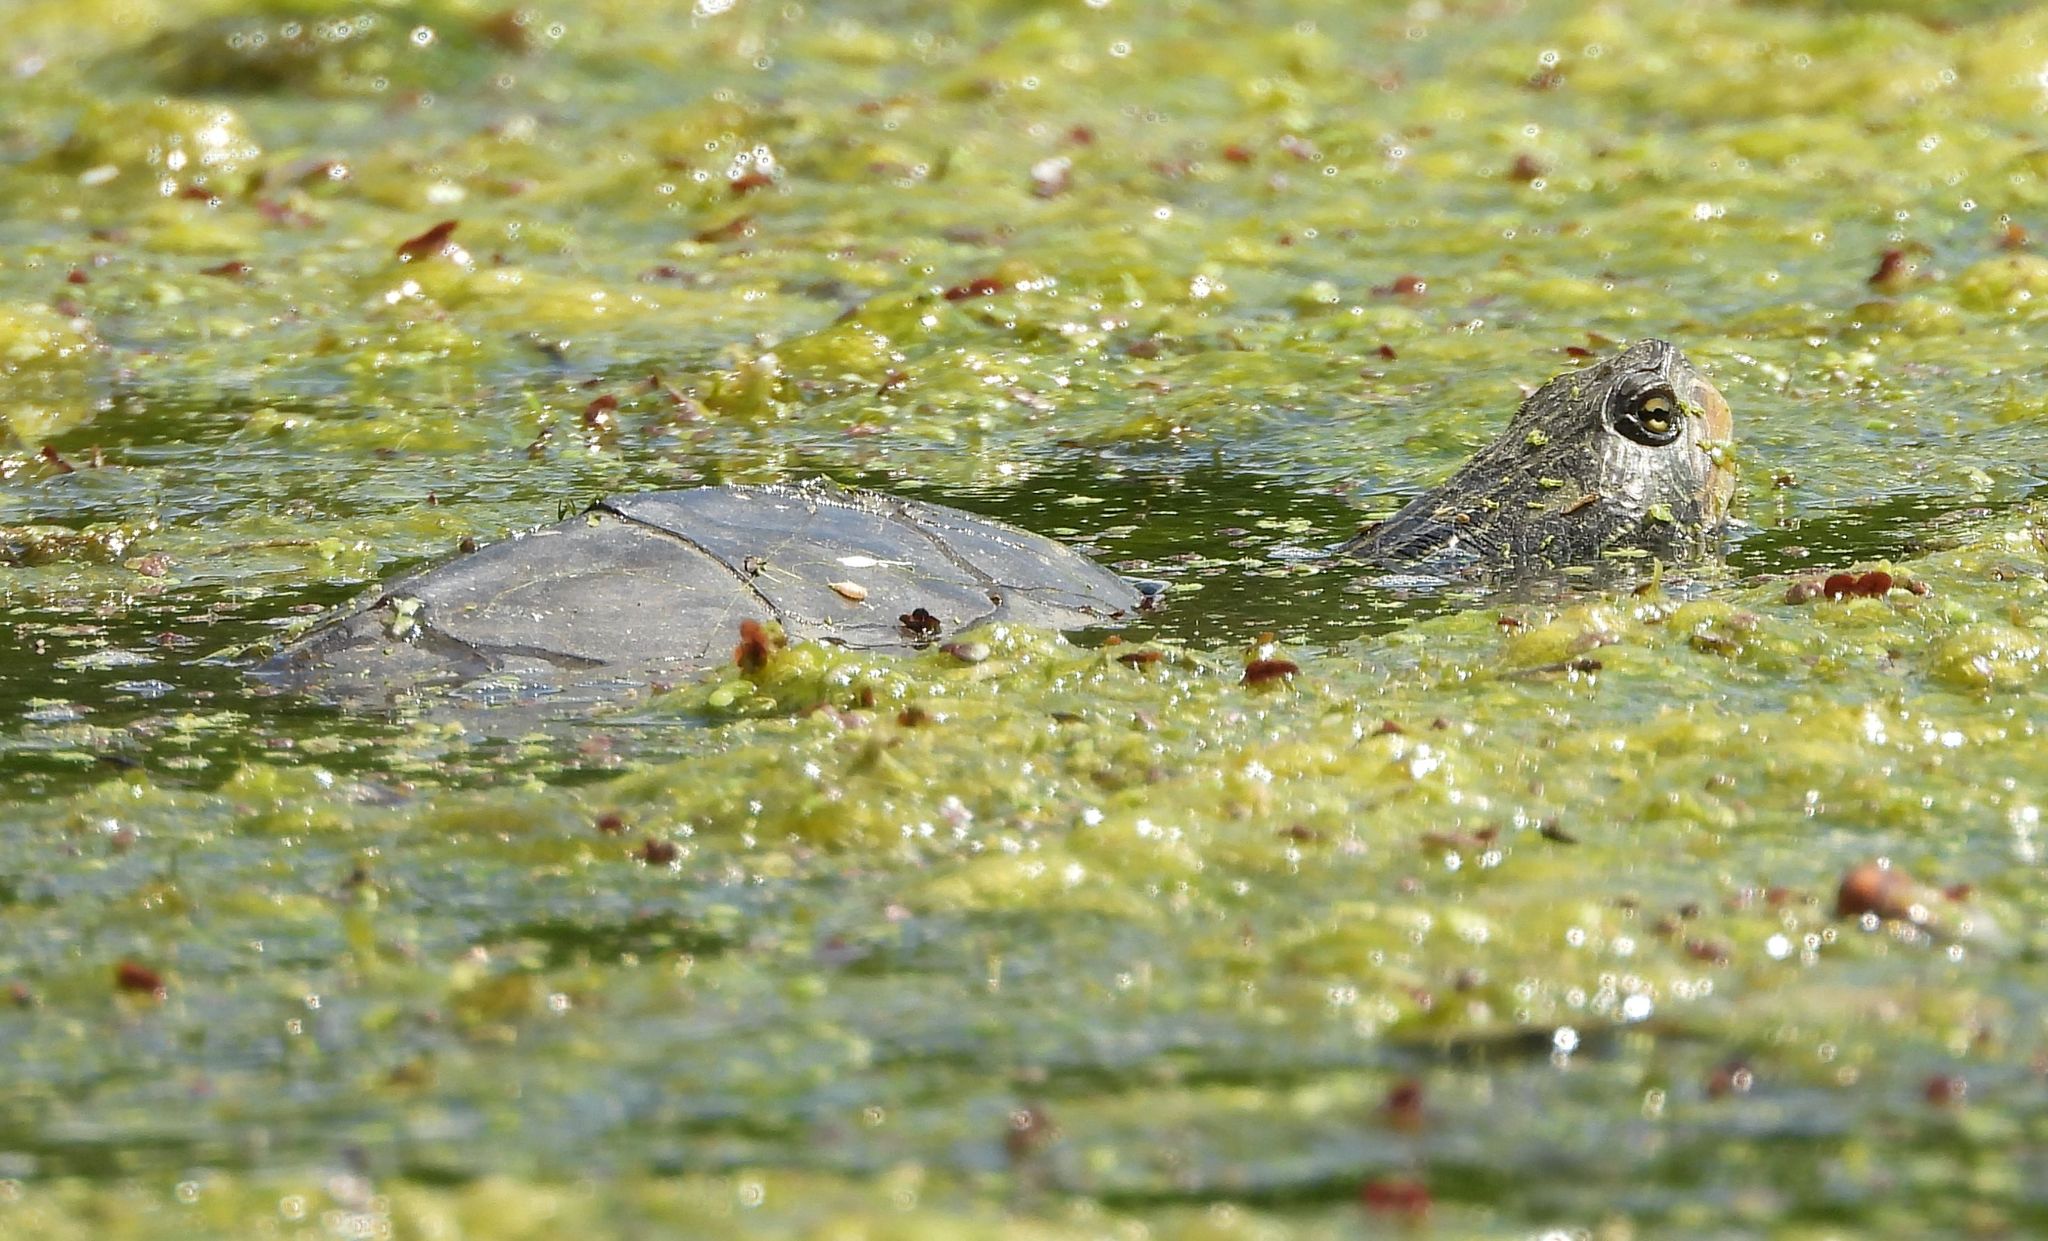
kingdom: Animalia
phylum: Chordata
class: Testudines
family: Emydidae
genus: Graptemys
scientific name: Graptemys geographica
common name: Common map turtle
